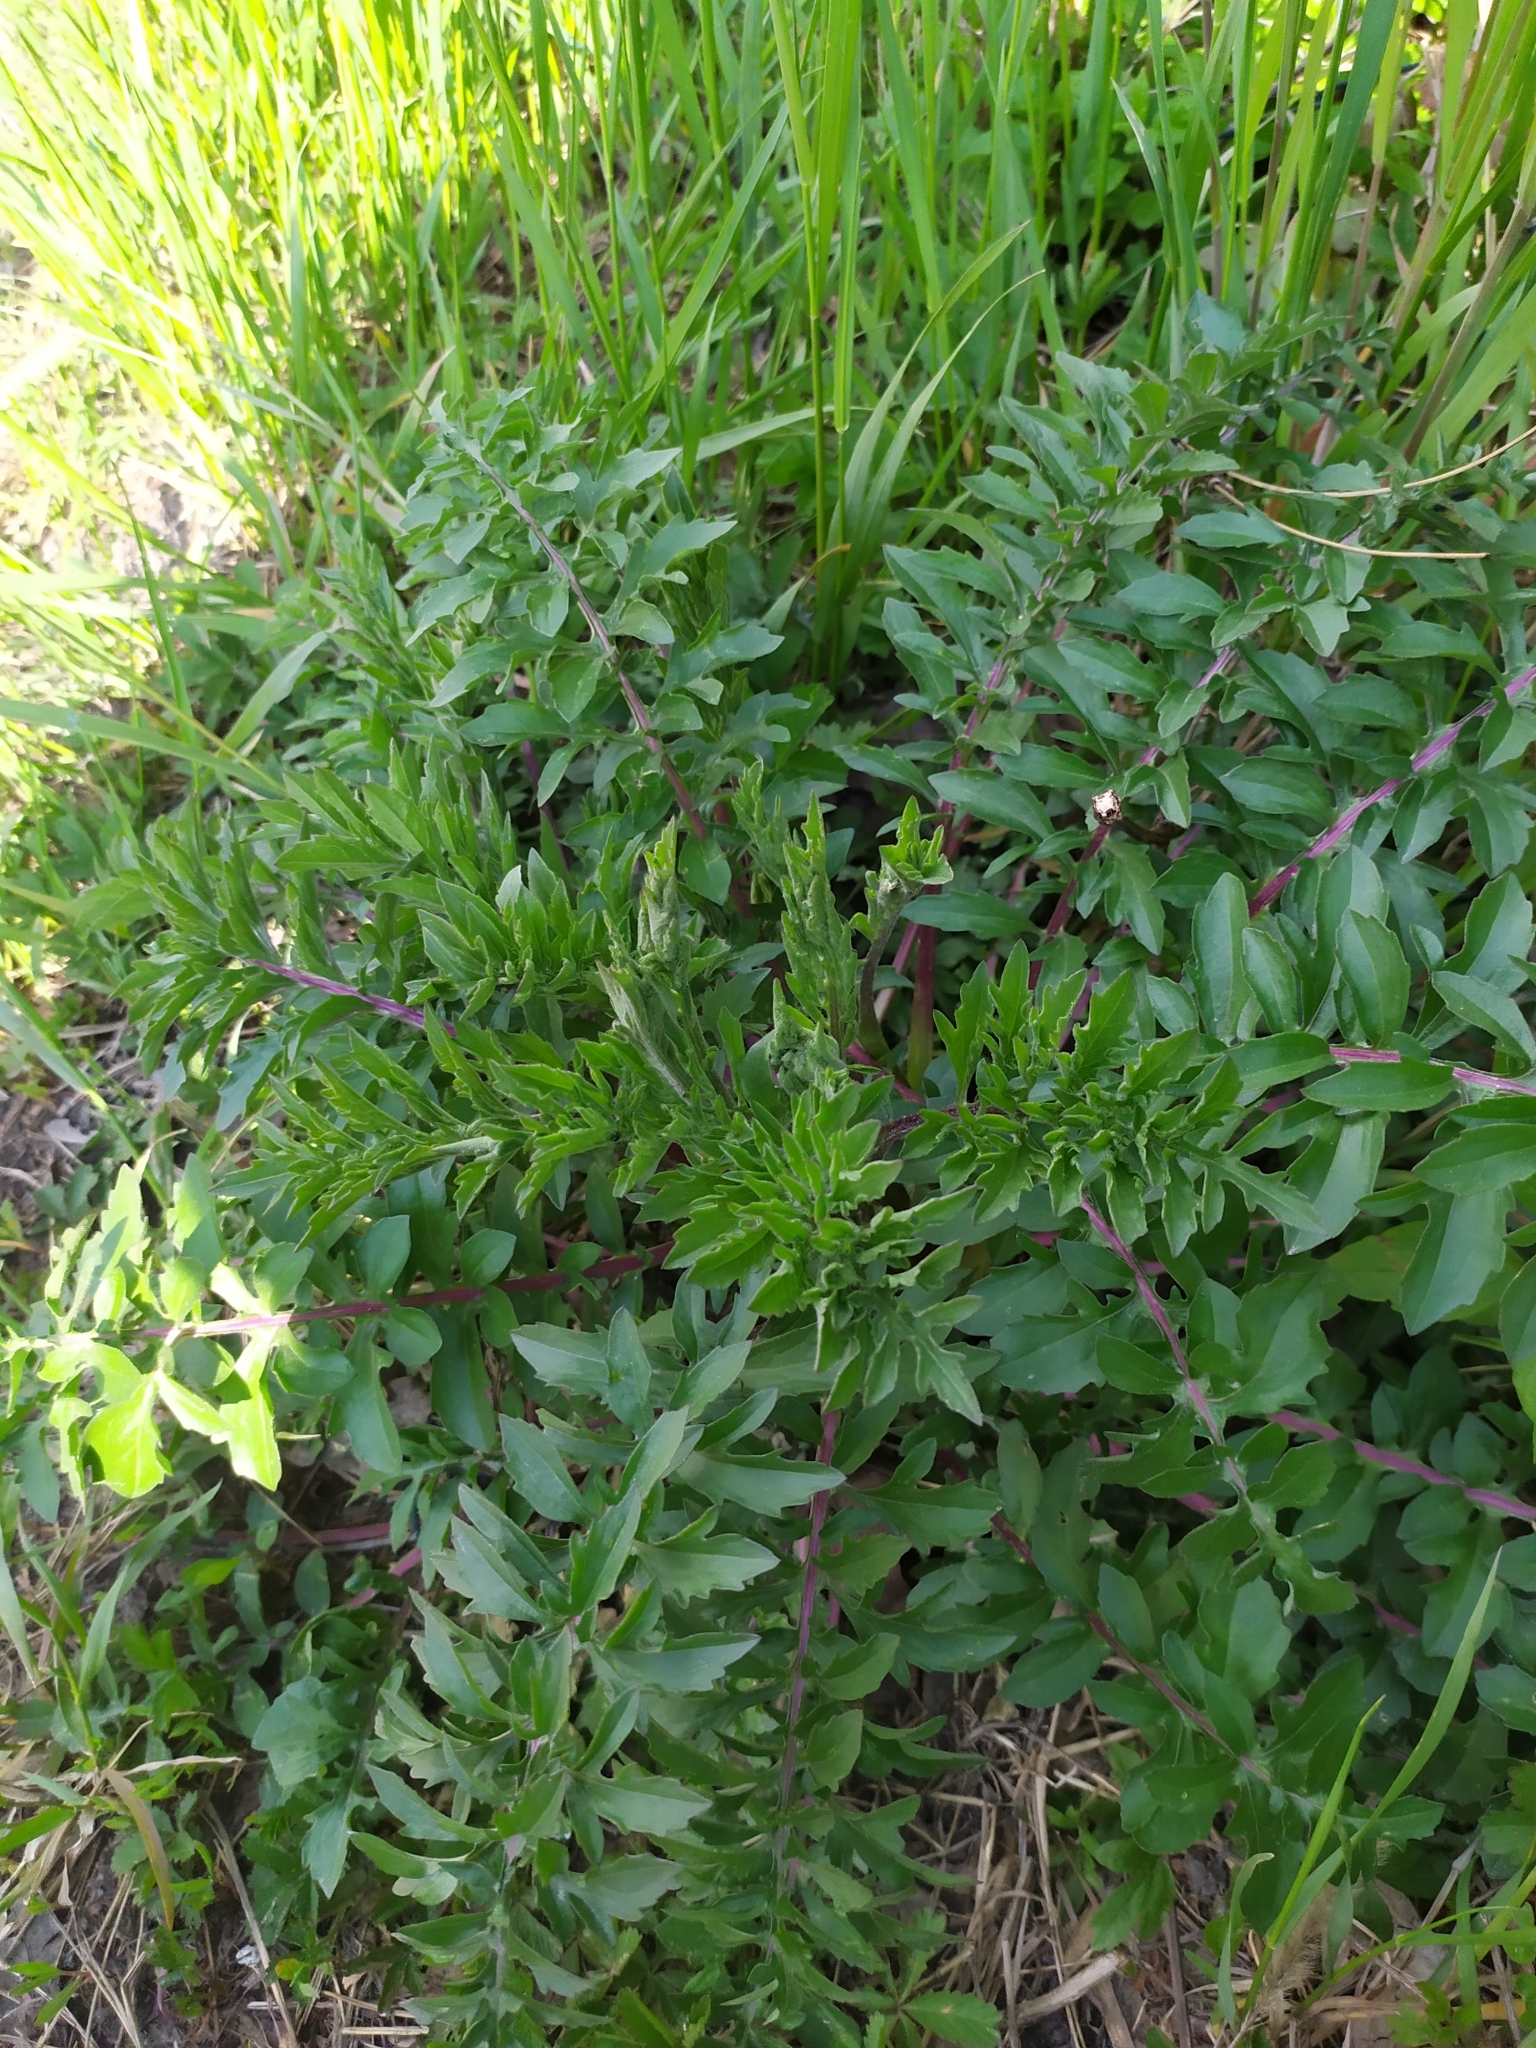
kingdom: Plantae
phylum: Tracheophyta
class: Magnoliopsida
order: Asterales
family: Asteraceae
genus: Centaurea
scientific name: Centaurea scabiosa
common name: Greater knapweed
